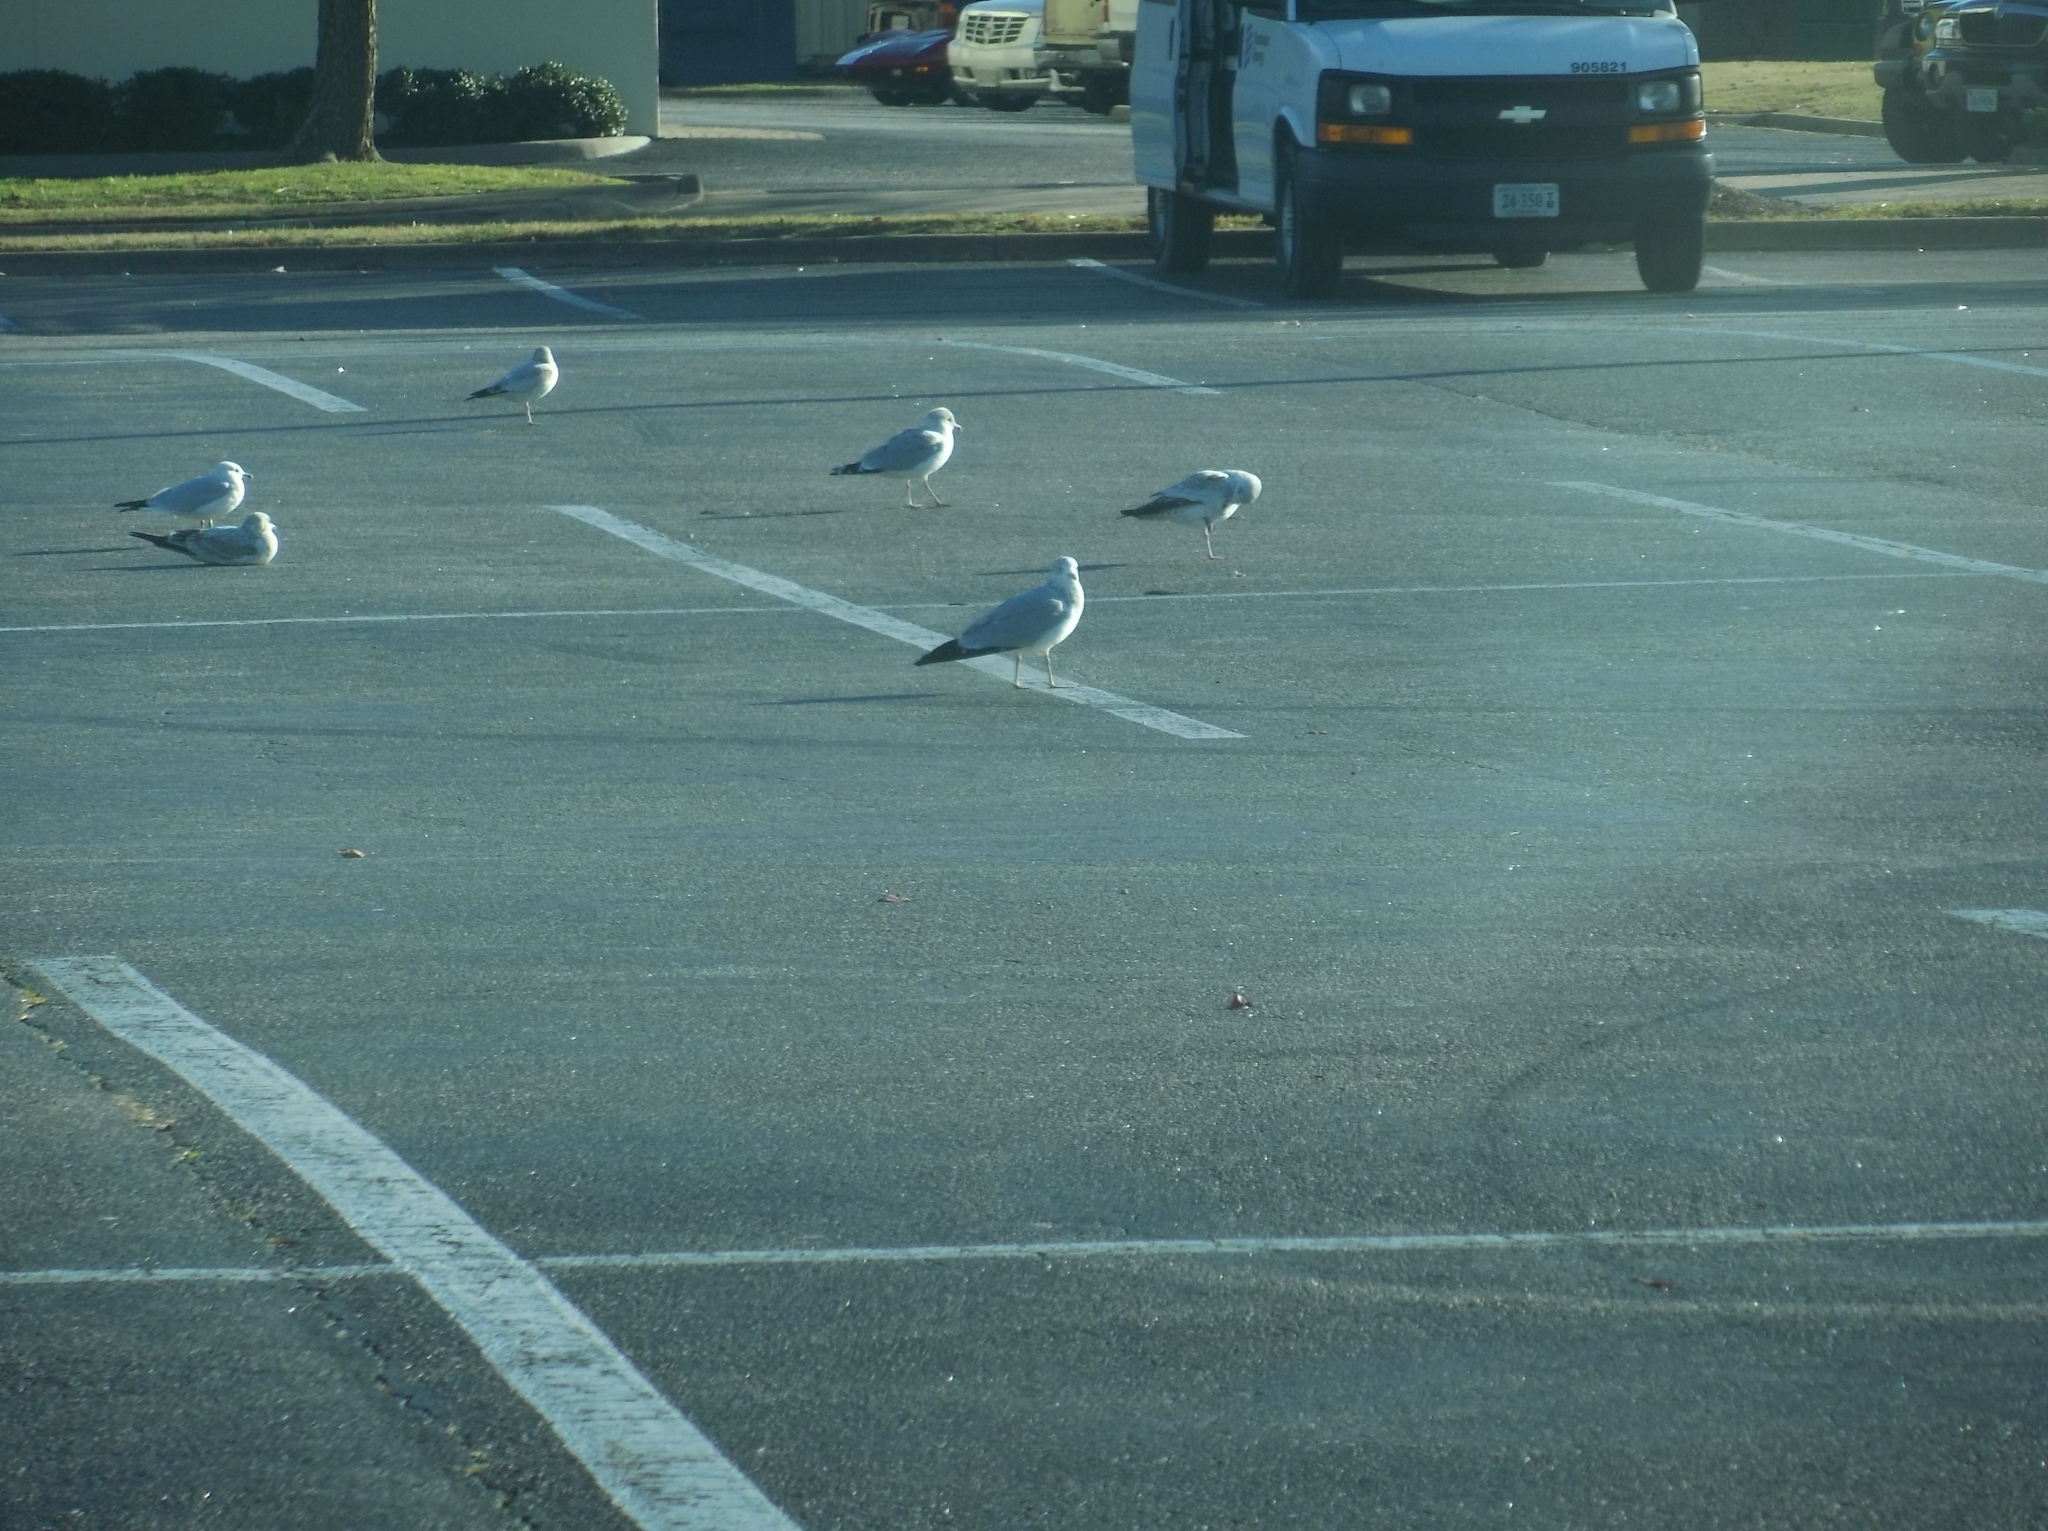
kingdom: Animalia
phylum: Chordata
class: Aves
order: Charadriiformes
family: Laridae
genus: Larus
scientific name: Larus delawarensis
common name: Ring-billed gull
